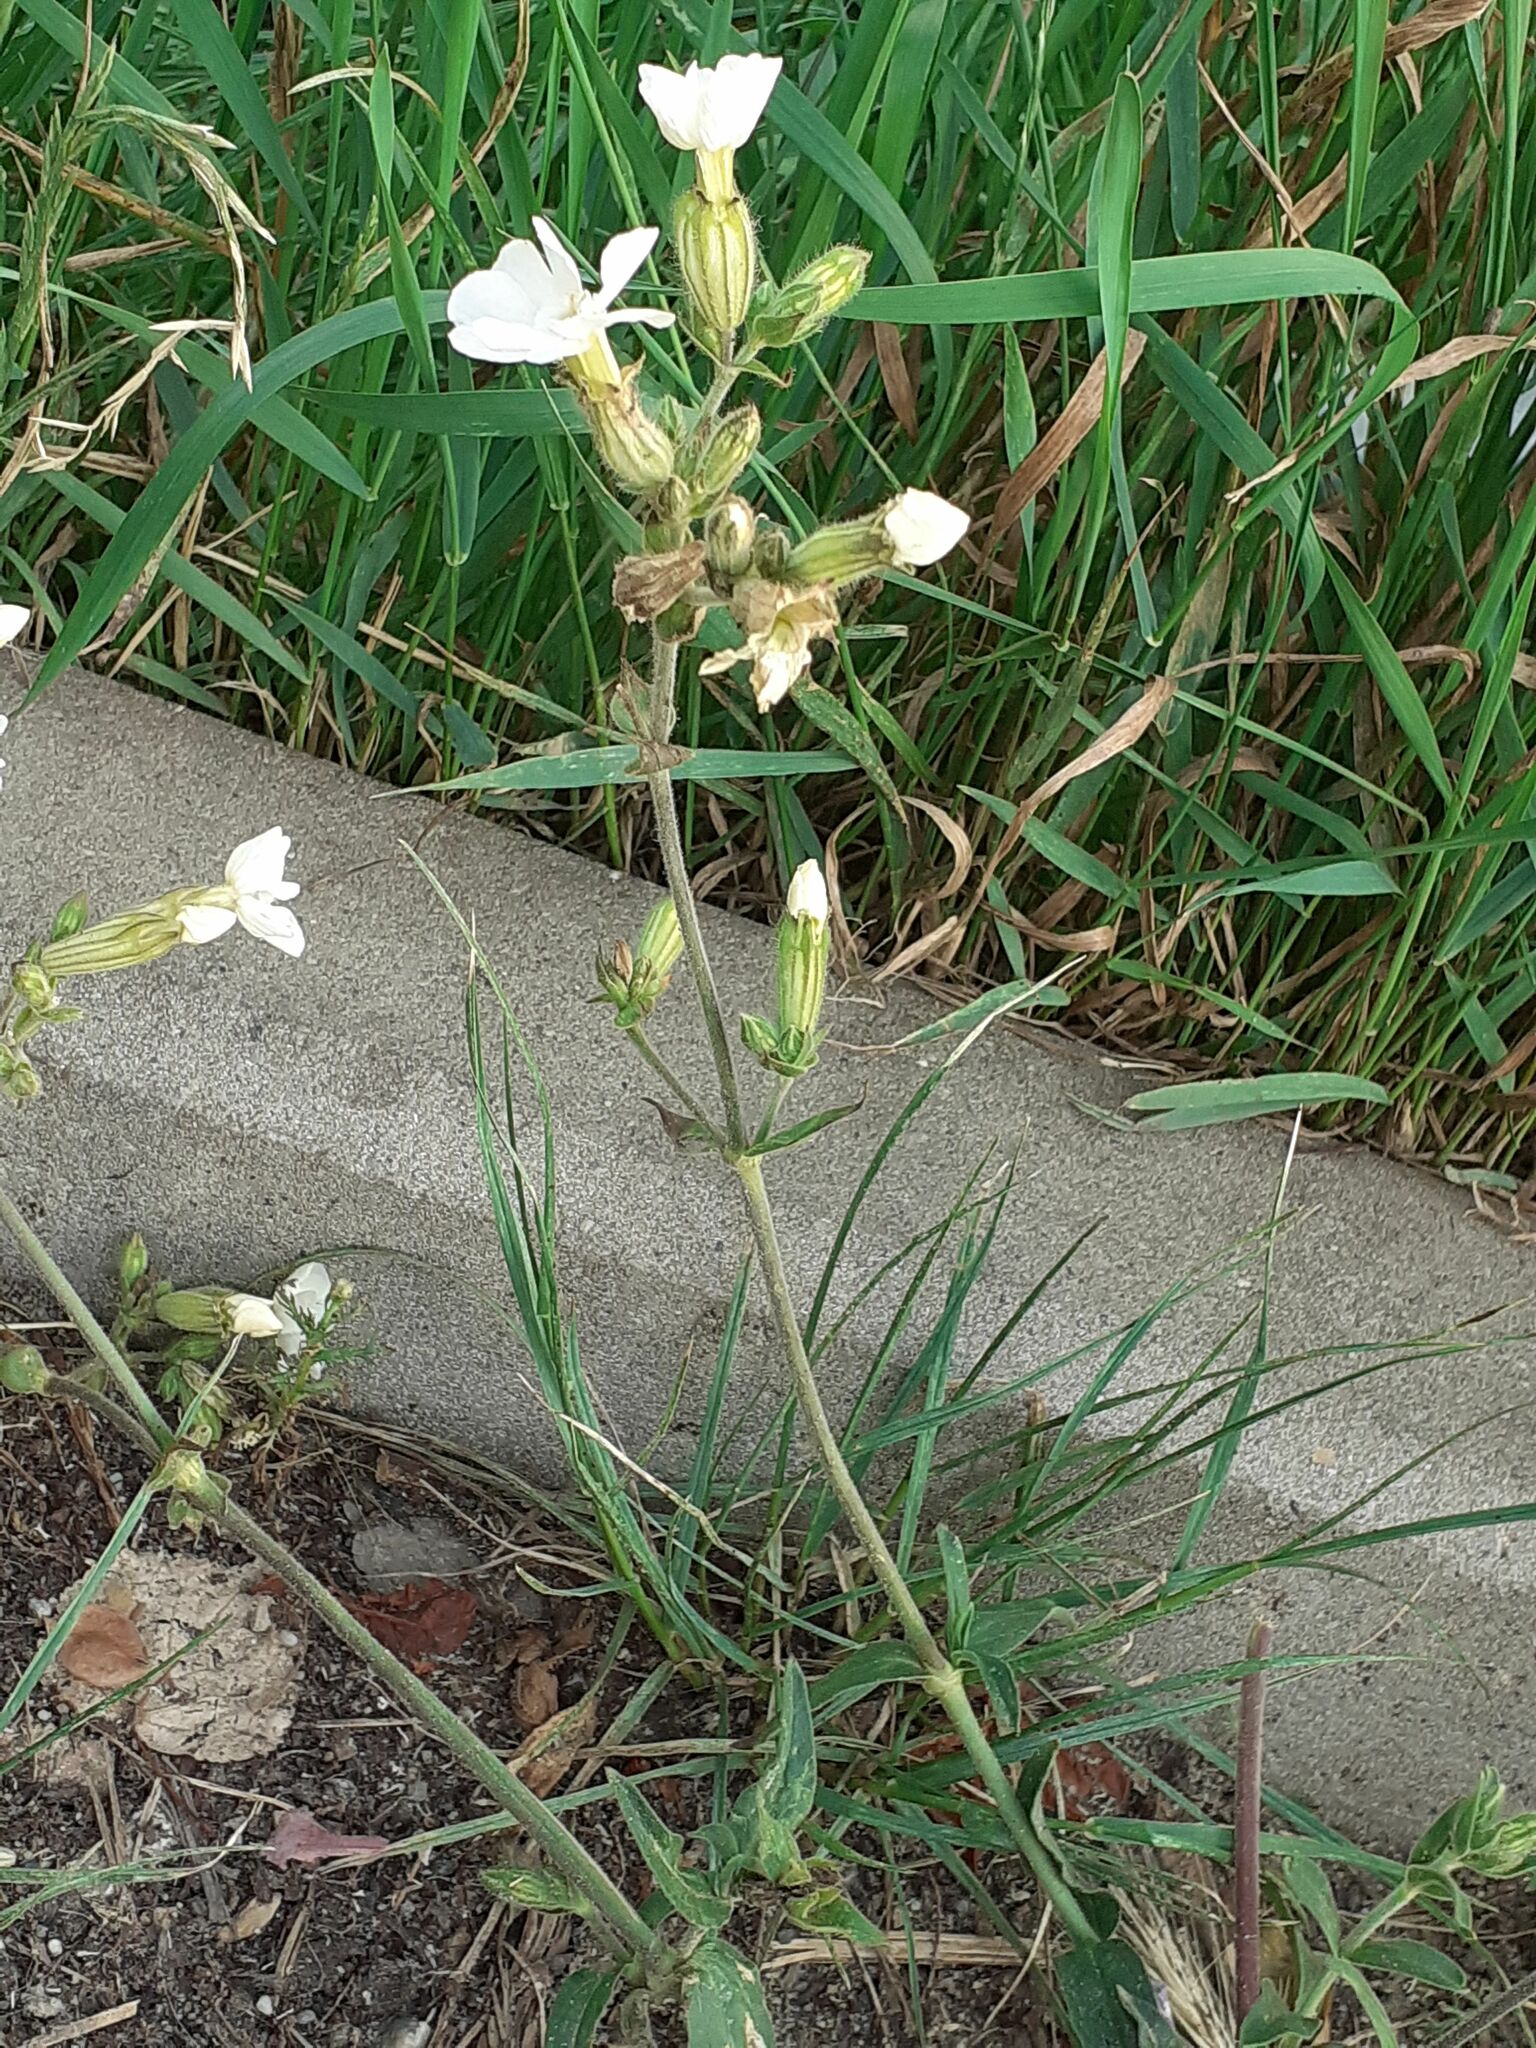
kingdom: Plantae
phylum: Tracheophyta
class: Magnoliopsida
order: Caryophyllales
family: Caryophyllaceae
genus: Silene
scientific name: Silene latifolia
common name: White campion
